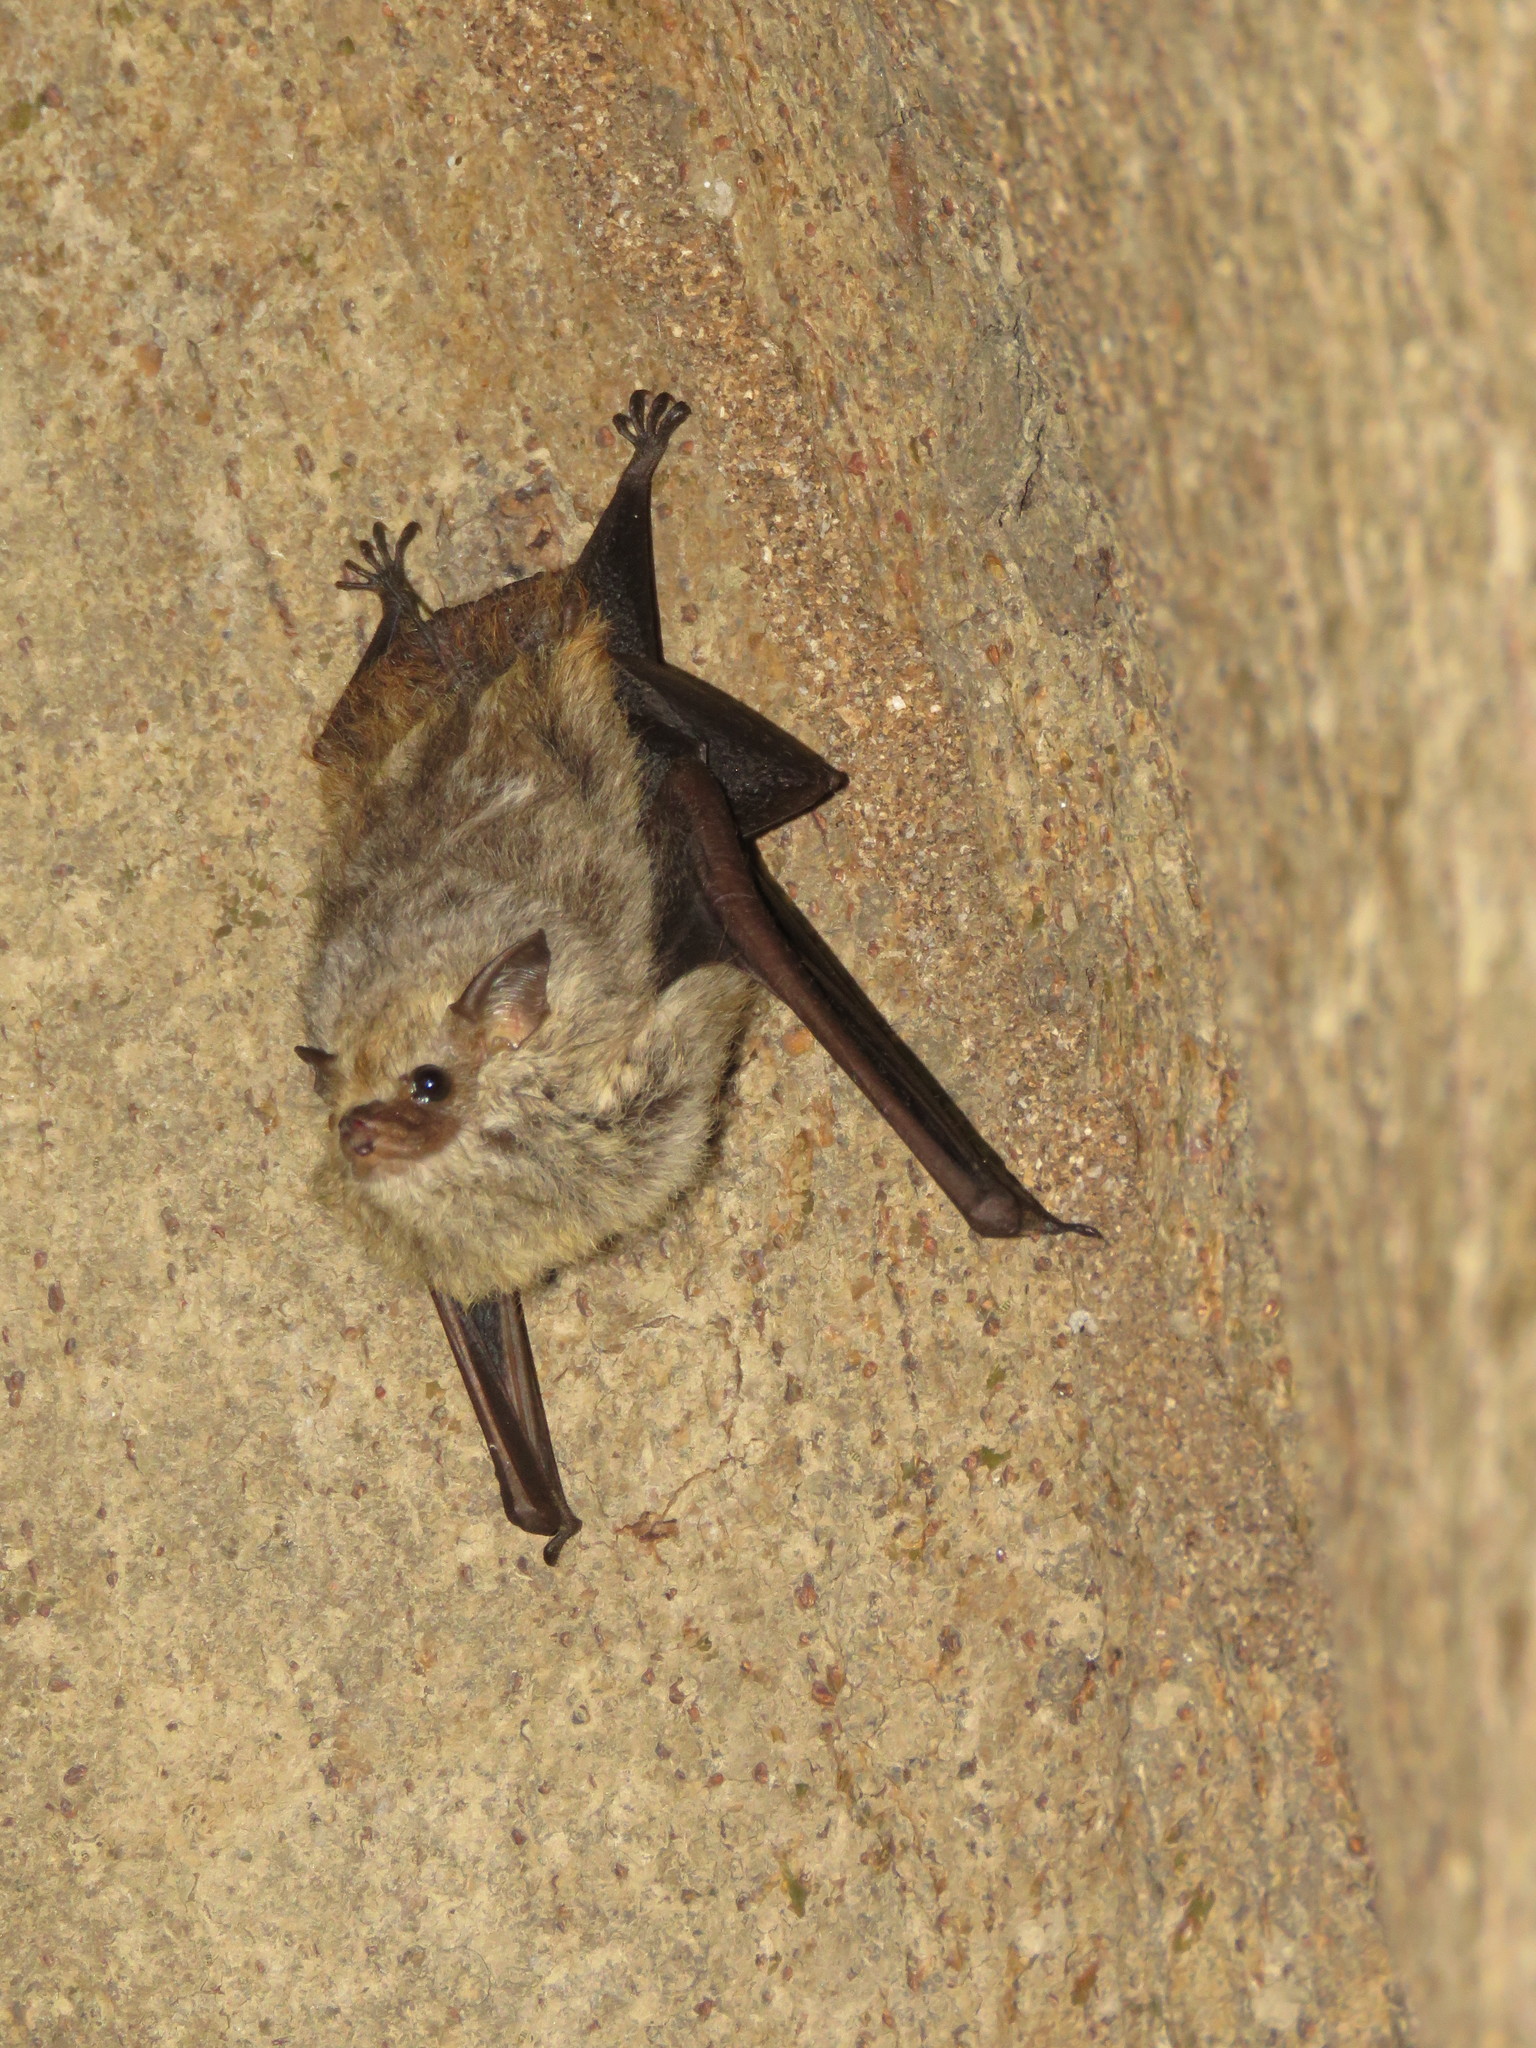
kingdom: Animalia
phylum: Chordata
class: Mammalia
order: Chiroptera
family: Emballonuridae
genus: Saccopteryx
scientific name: Saccopteryx canescens
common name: Frosted sac-winged bat
